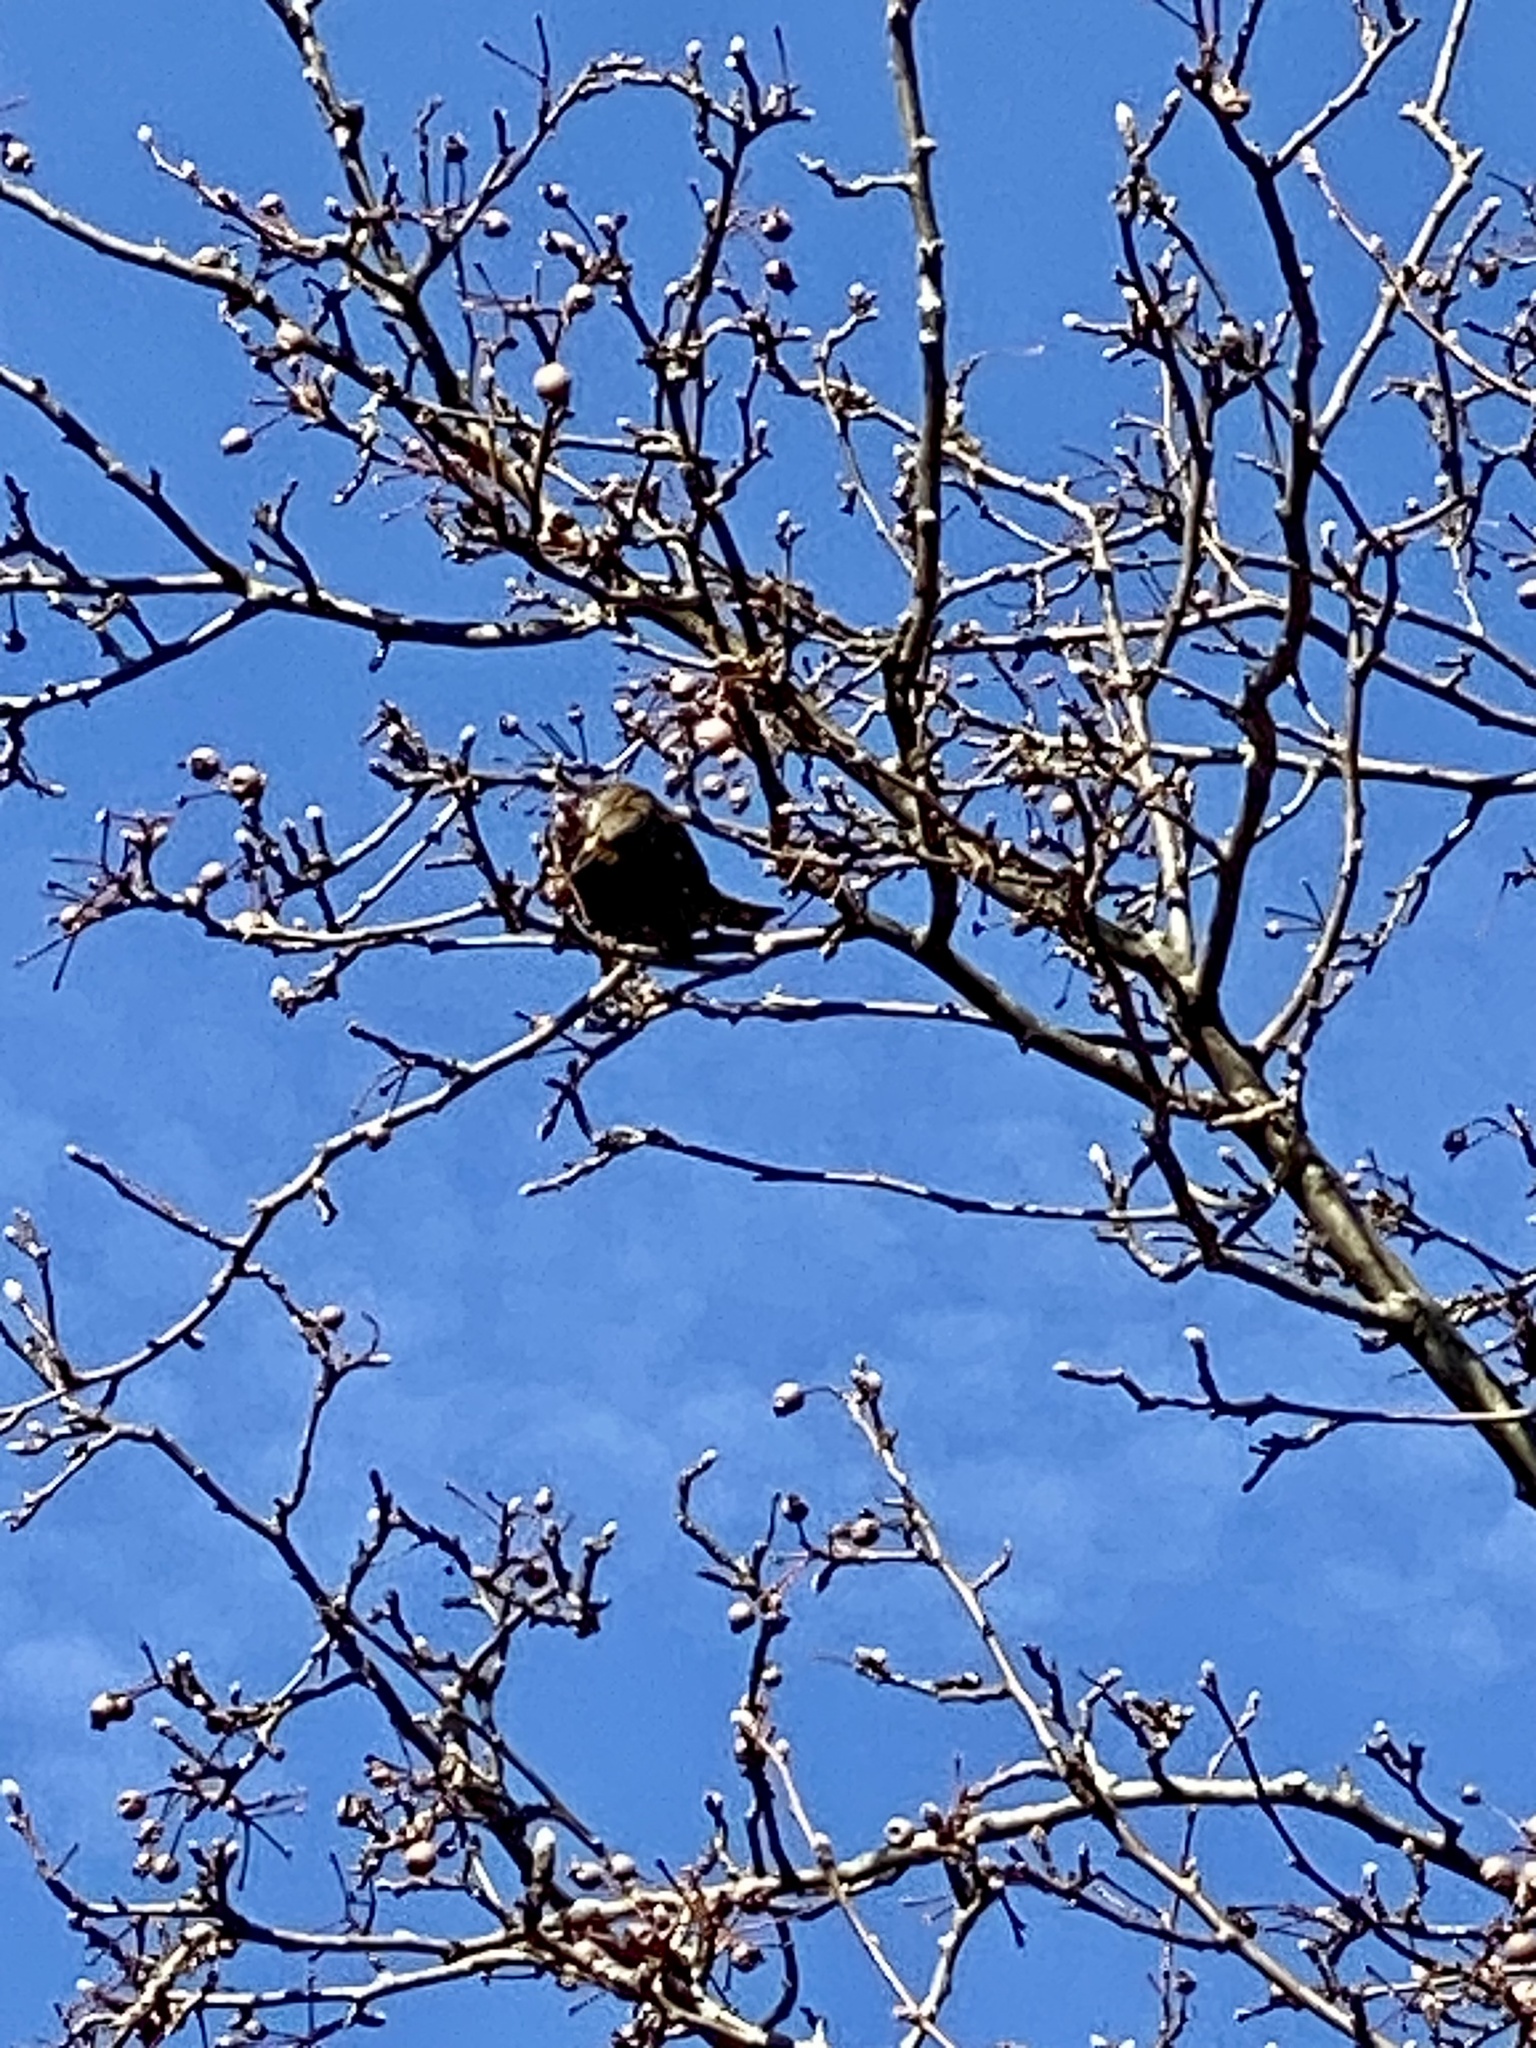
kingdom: Animalia
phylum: Chordata
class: Aves
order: Passeriformes
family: Sturnidae
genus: Sturnus
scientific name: Sturnus vulgaris
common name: Common starling
